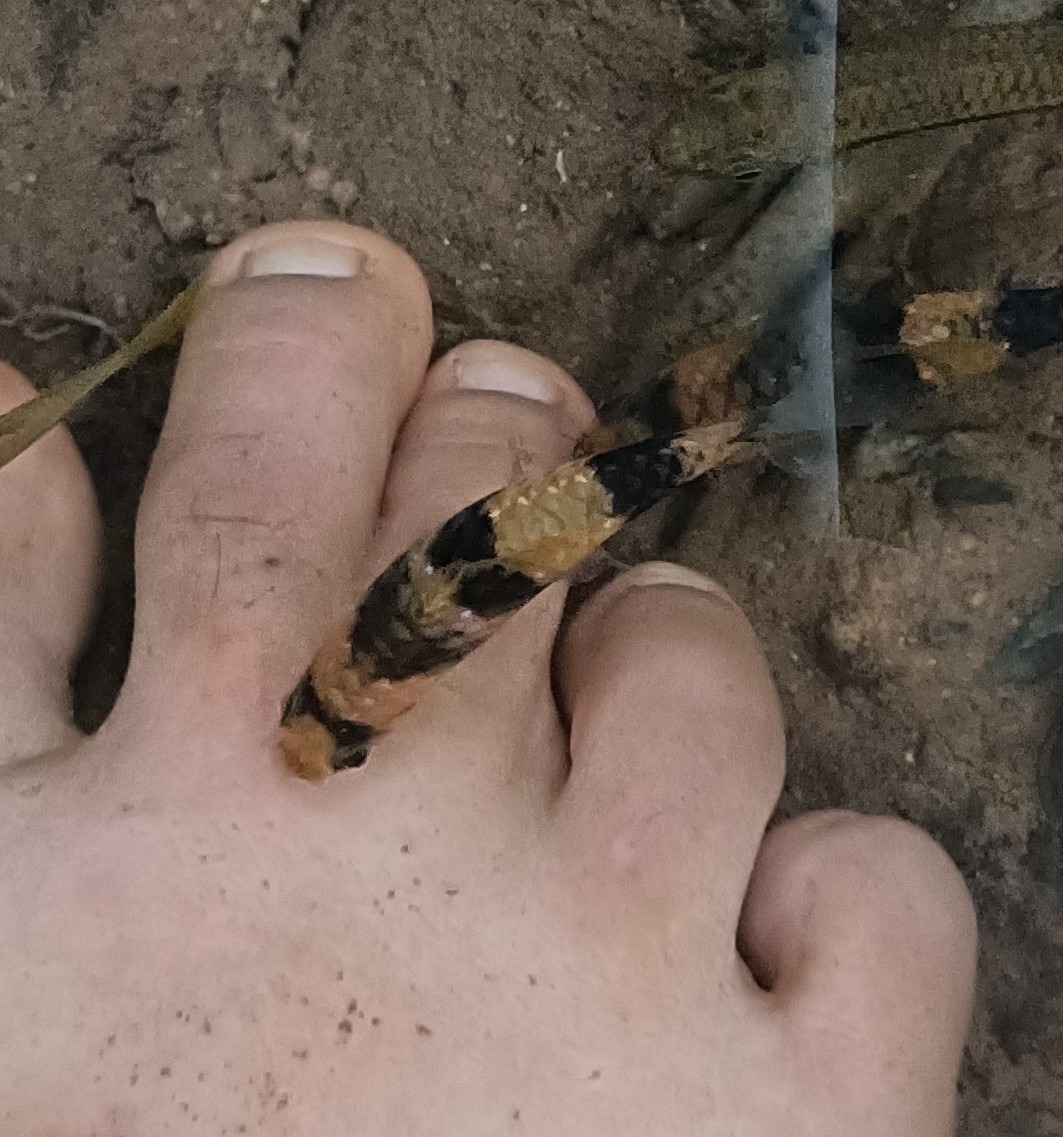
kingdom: Animalia
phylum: Chordata
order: Cypriniformes
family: Cyprinidae
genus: Haludaria
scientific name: Haludaria fasciata
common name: Melon barb
